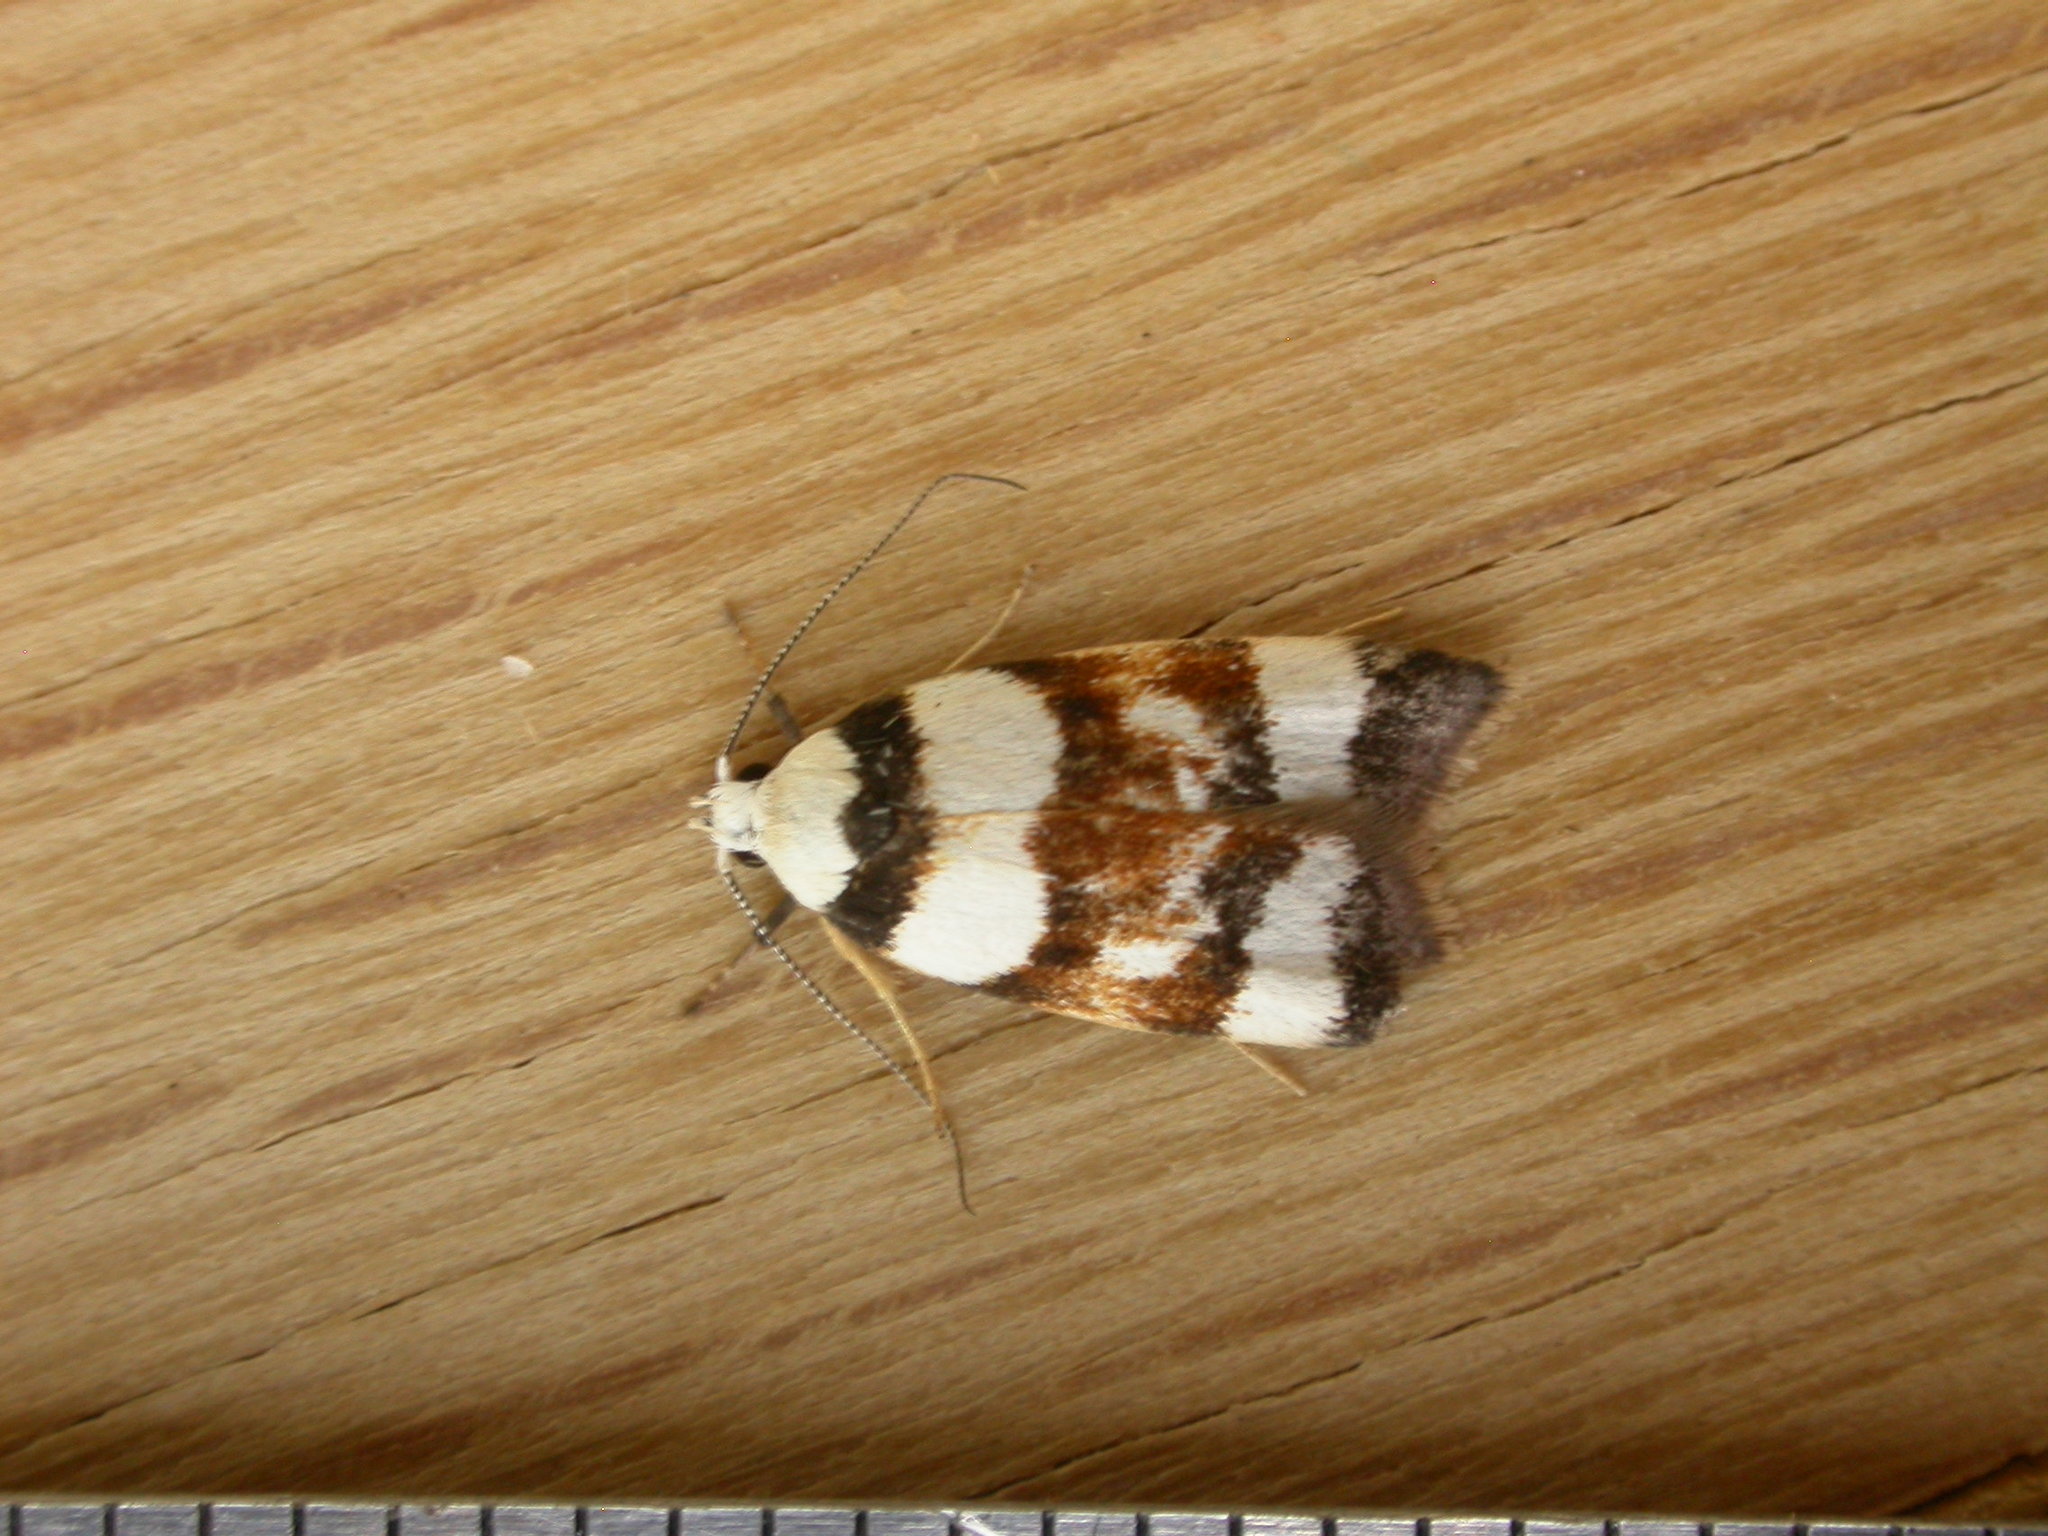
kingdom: Animalia
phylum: Arthropoda
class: Insecta
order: Lepidoptera
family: Oecophoridae
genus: Catacometes
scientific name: Catacometes phanozona
